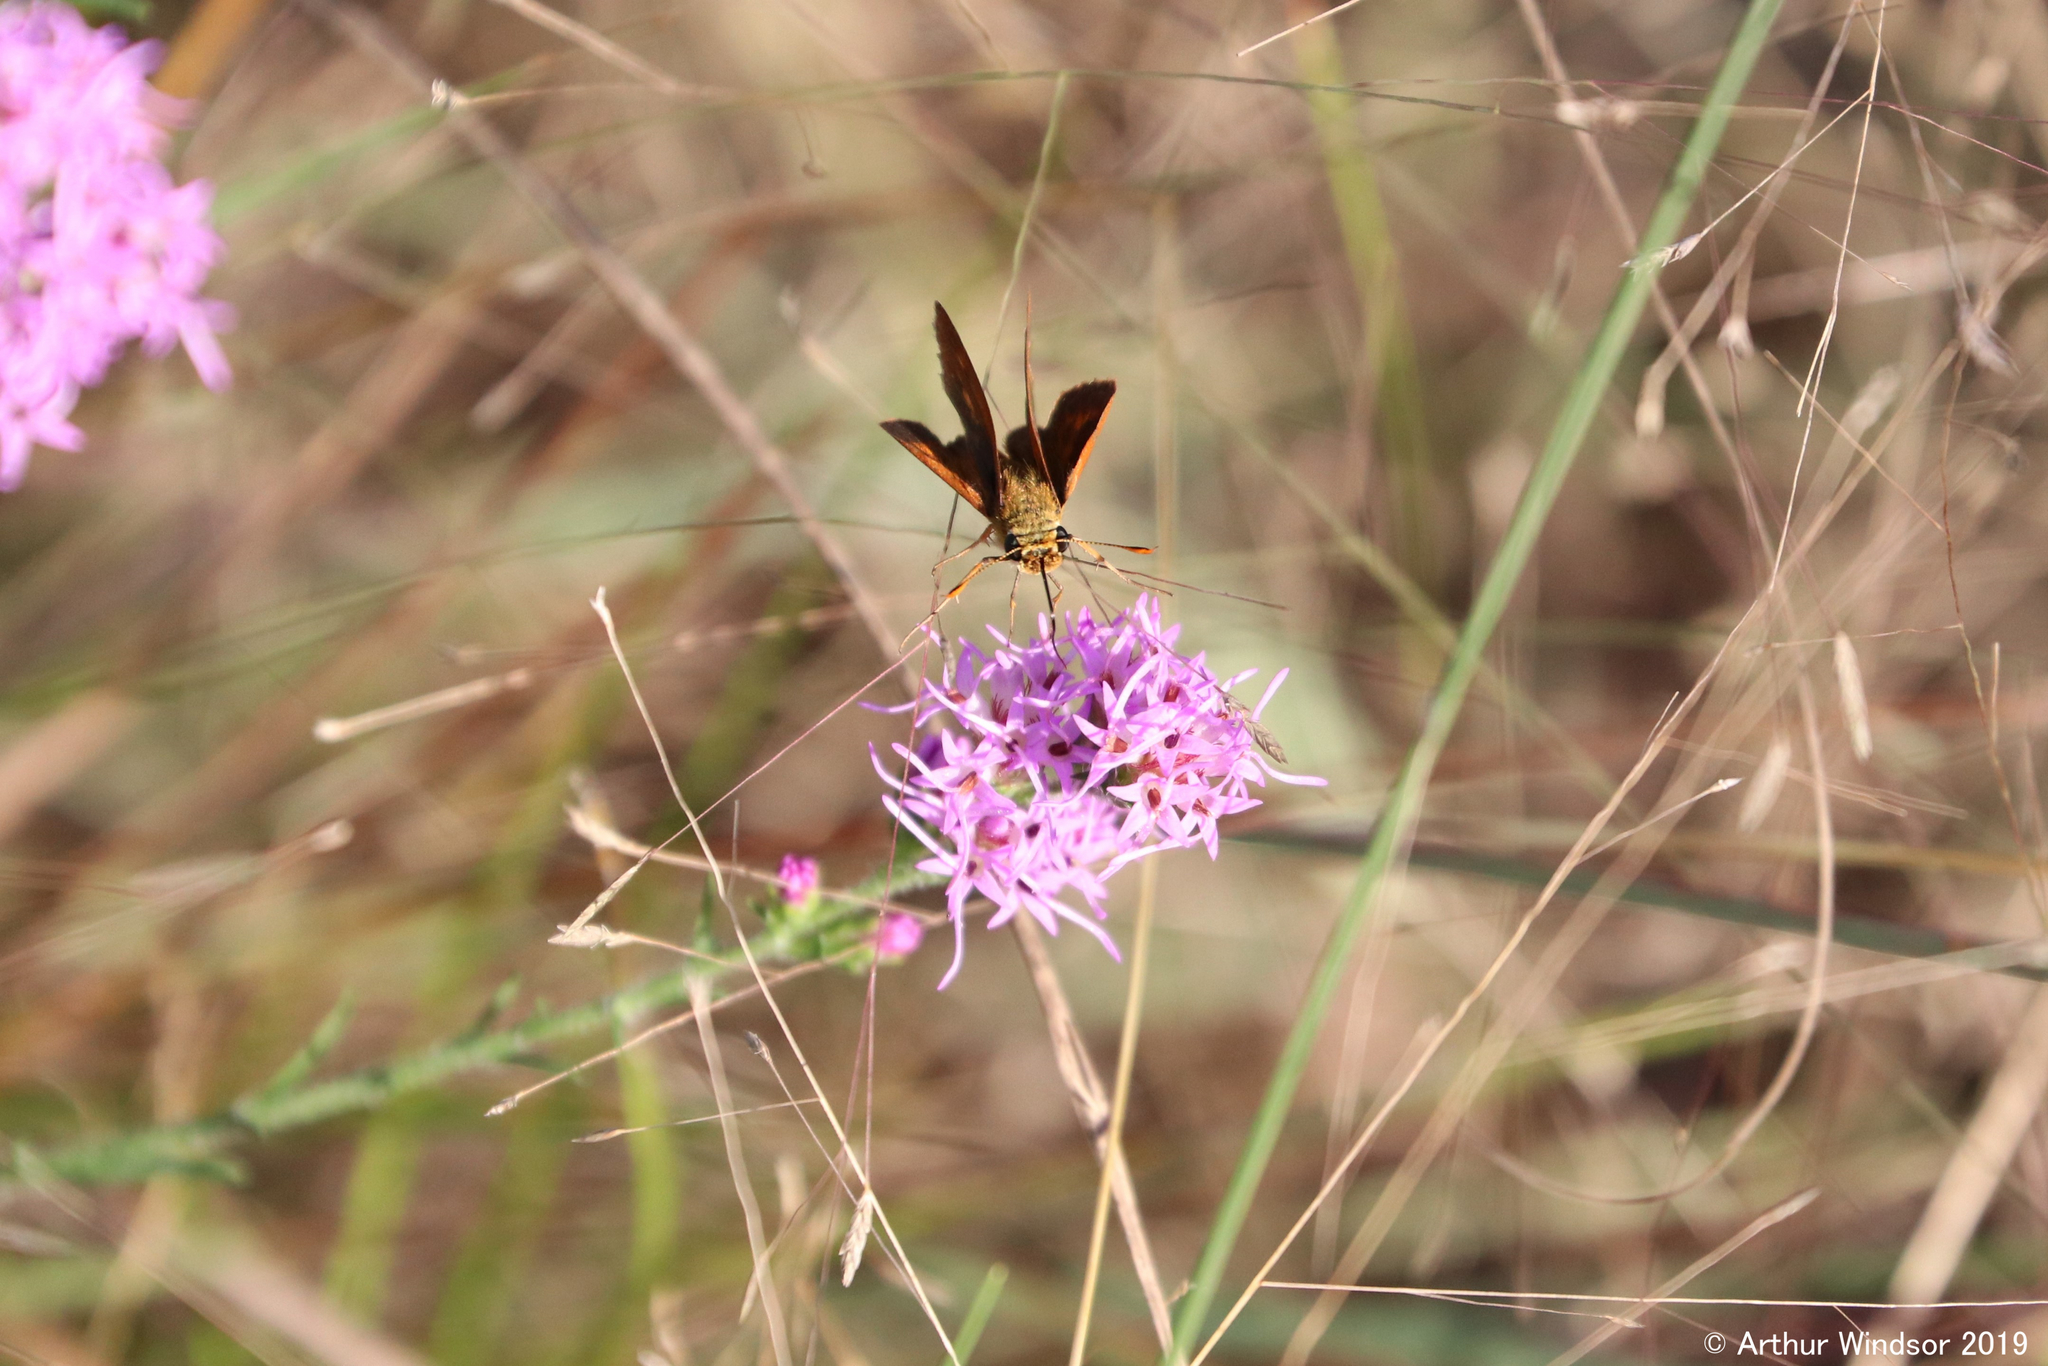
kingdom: Animalia
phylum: Arthropoda
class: Insecta
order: Lepidoptera
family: Hesperiidae
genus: Polites
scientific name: Polites otho
